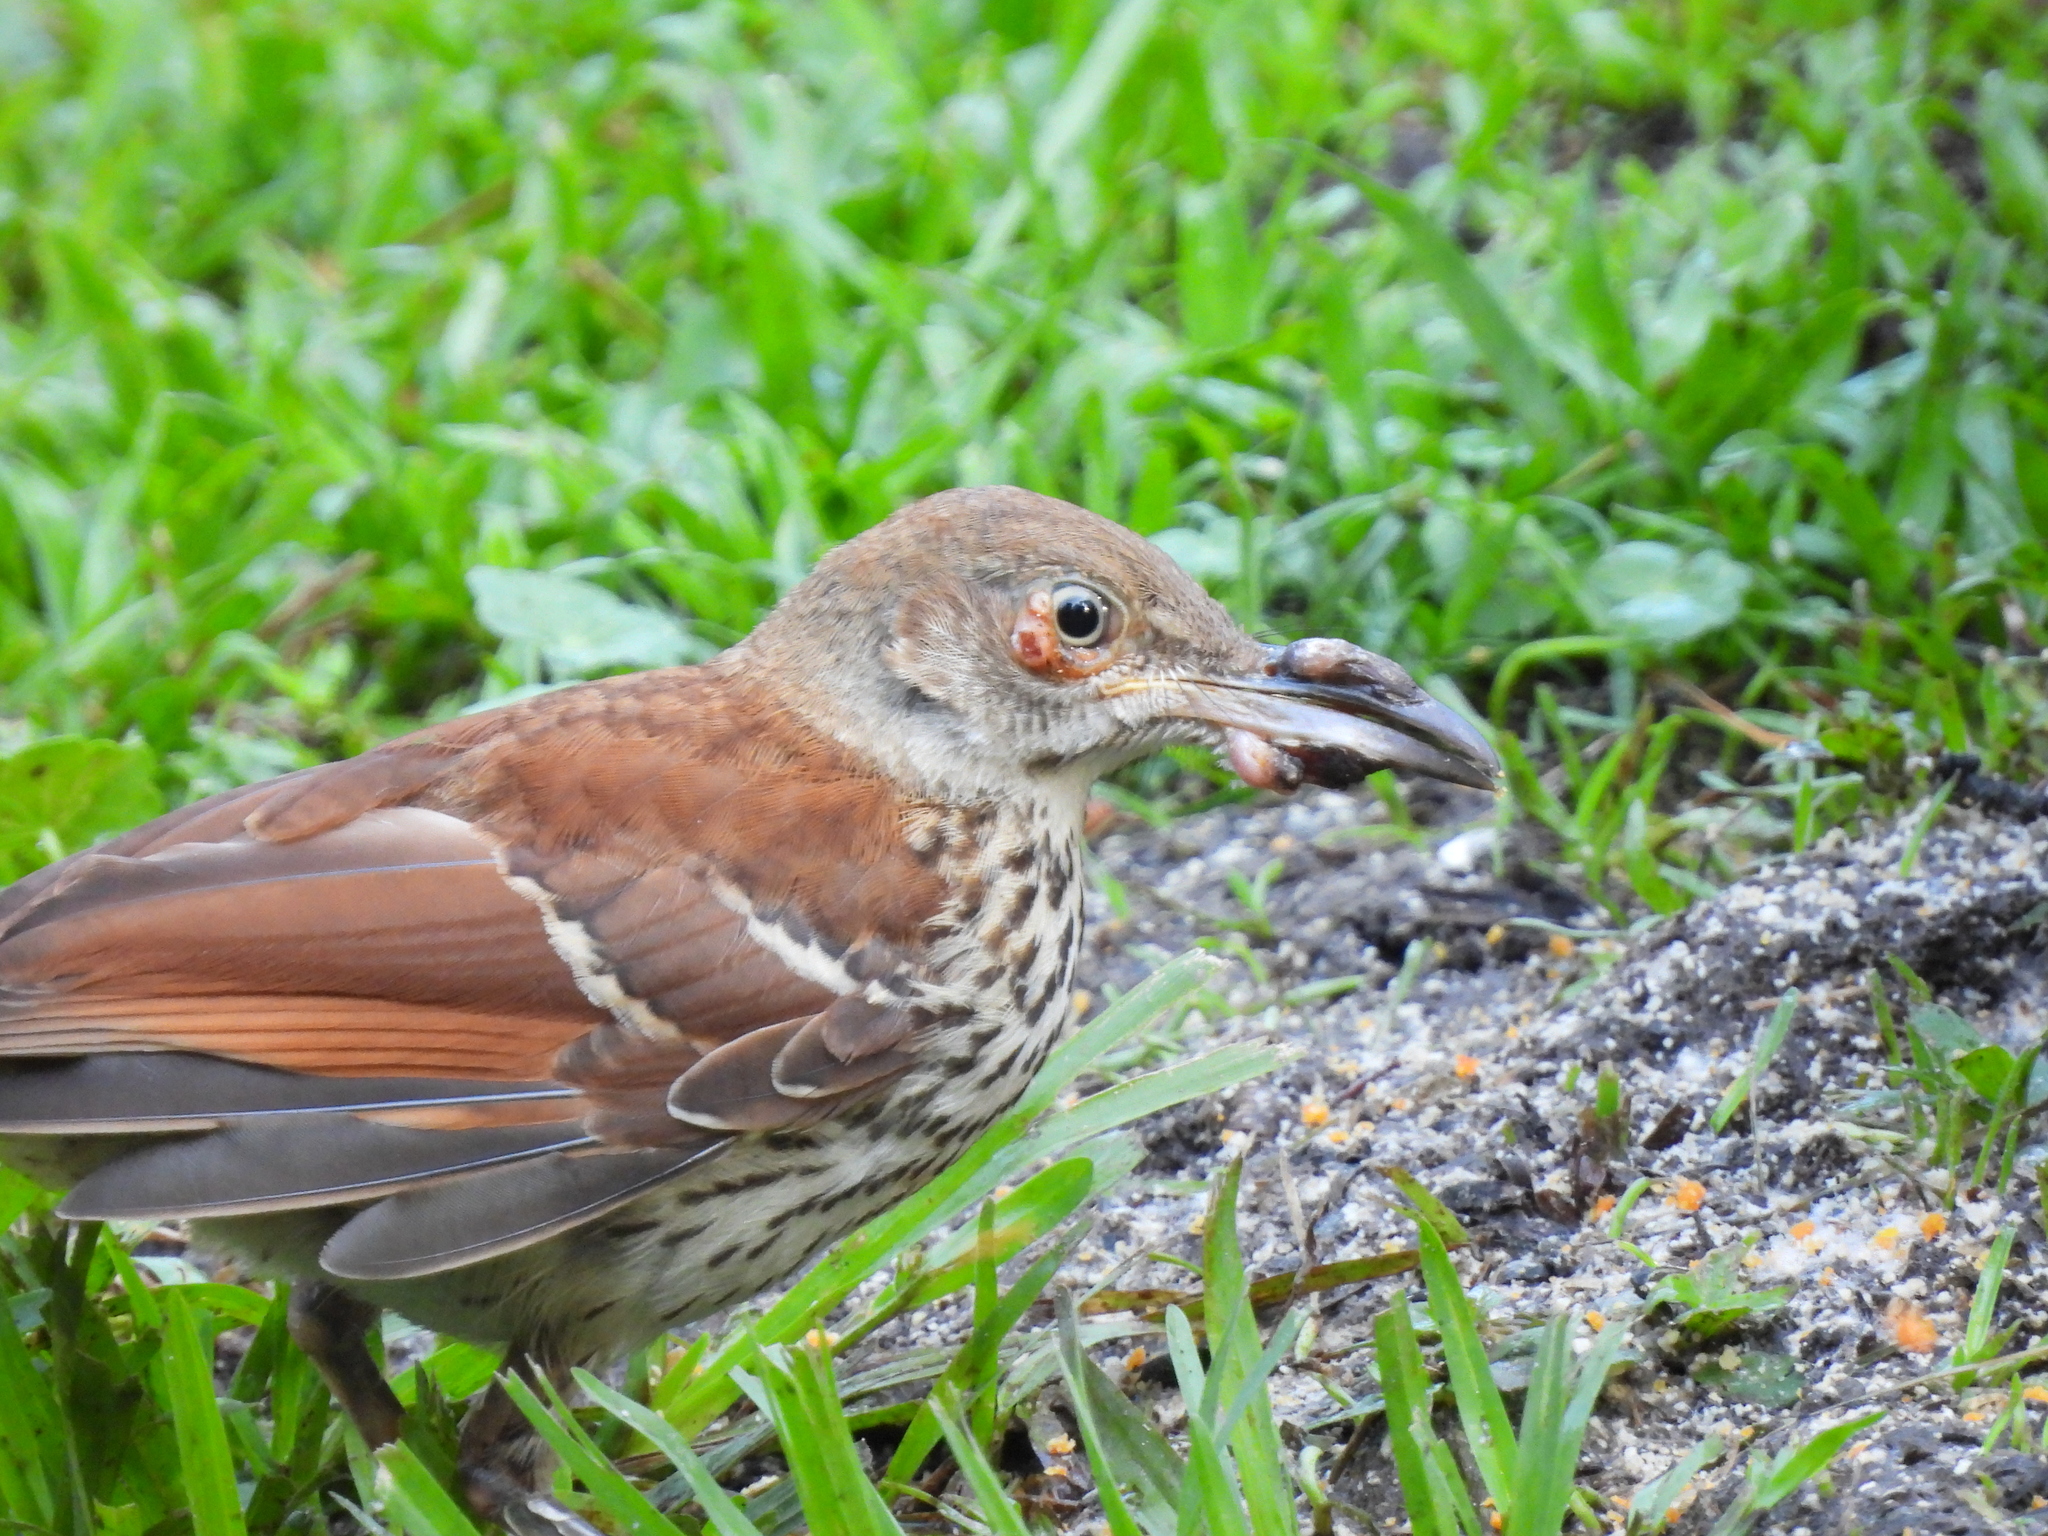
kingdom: Viruses
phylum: Nucleocytoviricota
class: Pokkesviricetes
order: Chitovirales
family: Poxviridae
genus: Avipoxvirus
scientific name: Avipoxvirus
